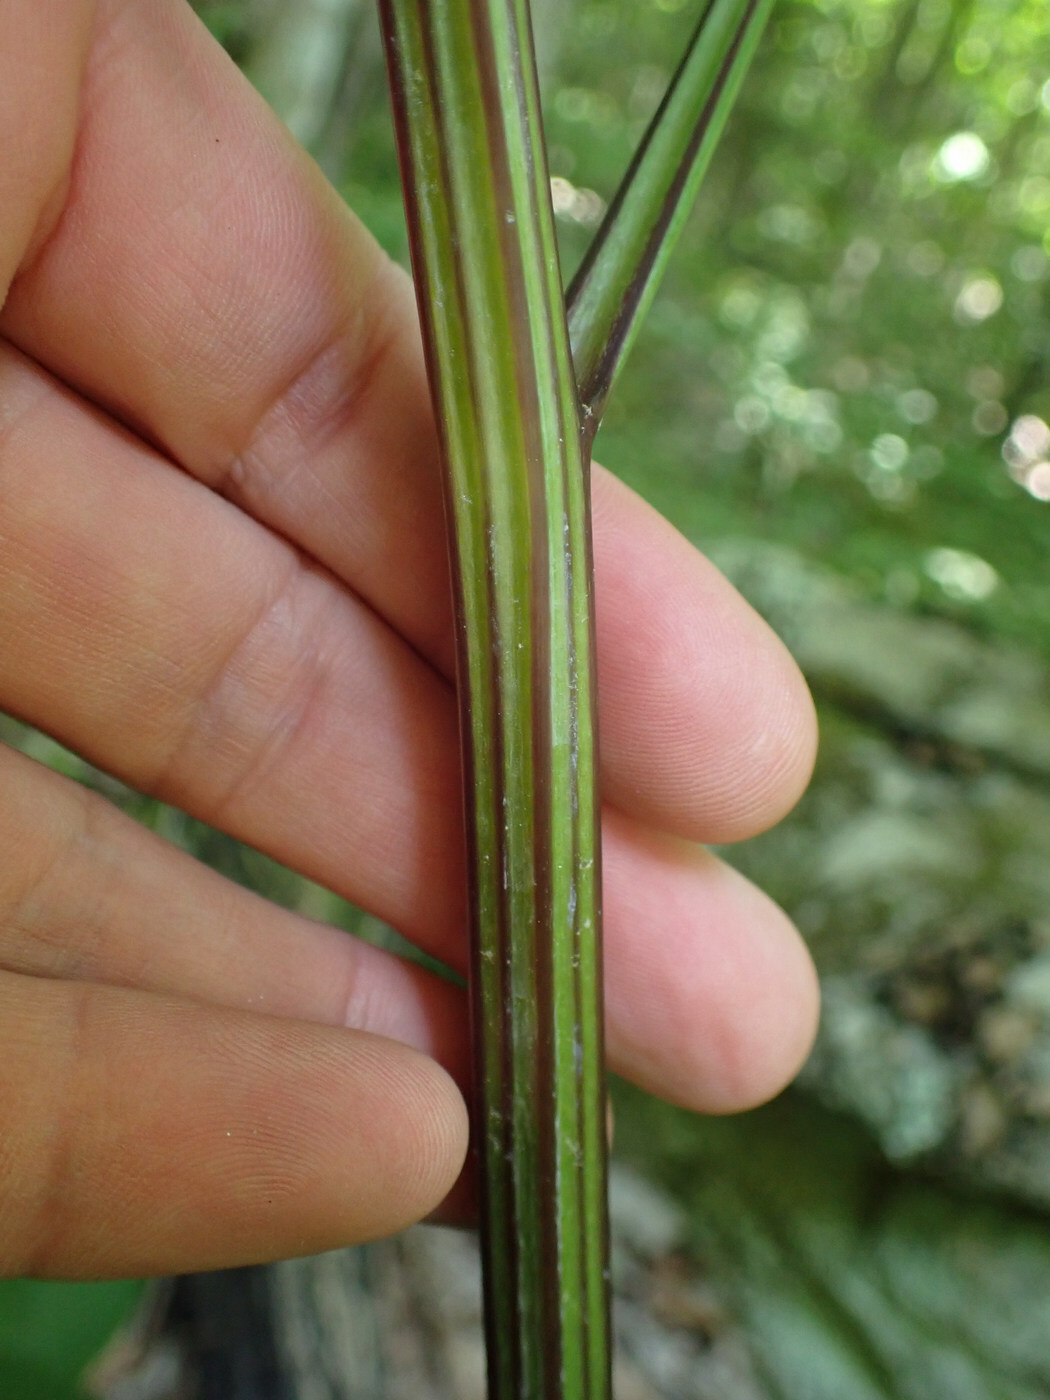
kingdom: Plantae
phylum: Tracheophyta
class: Magnoliopsida
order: Asterales
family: Asteraceae
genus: Arnoglossum
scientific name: Arnoglossum reniforme
